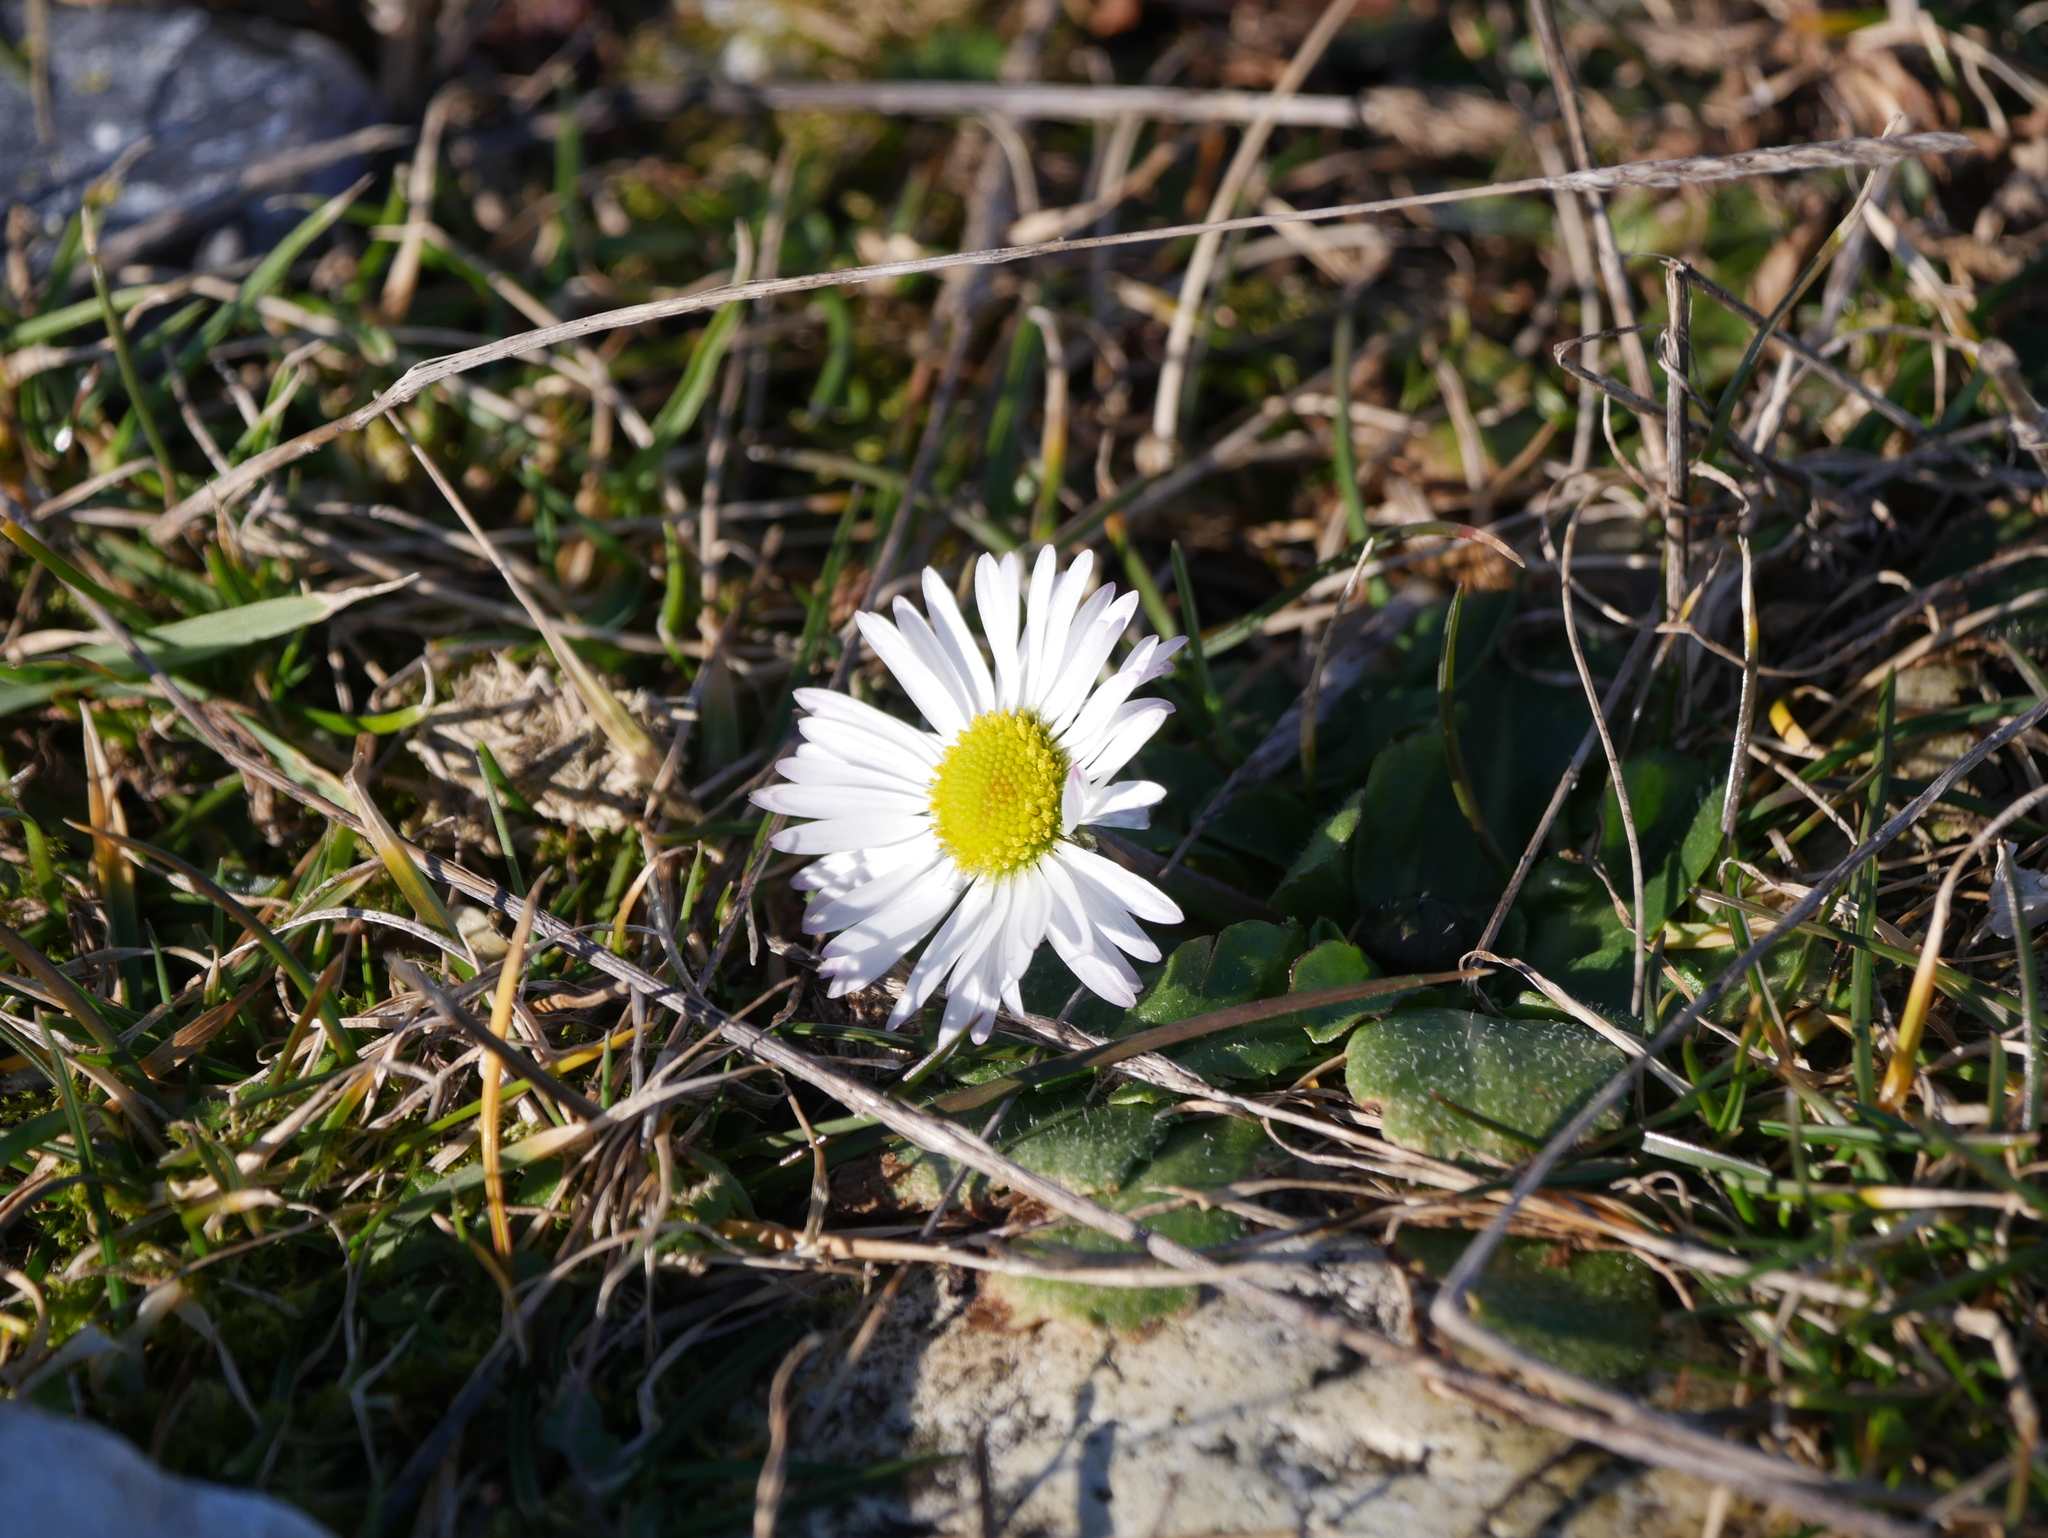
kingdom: Plantae
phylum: Tracheophyta
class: Magnoliopsida
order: Asterales
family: Asteraceae
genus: Bellis
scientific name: Bellis perennis
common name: Lawndaisy
